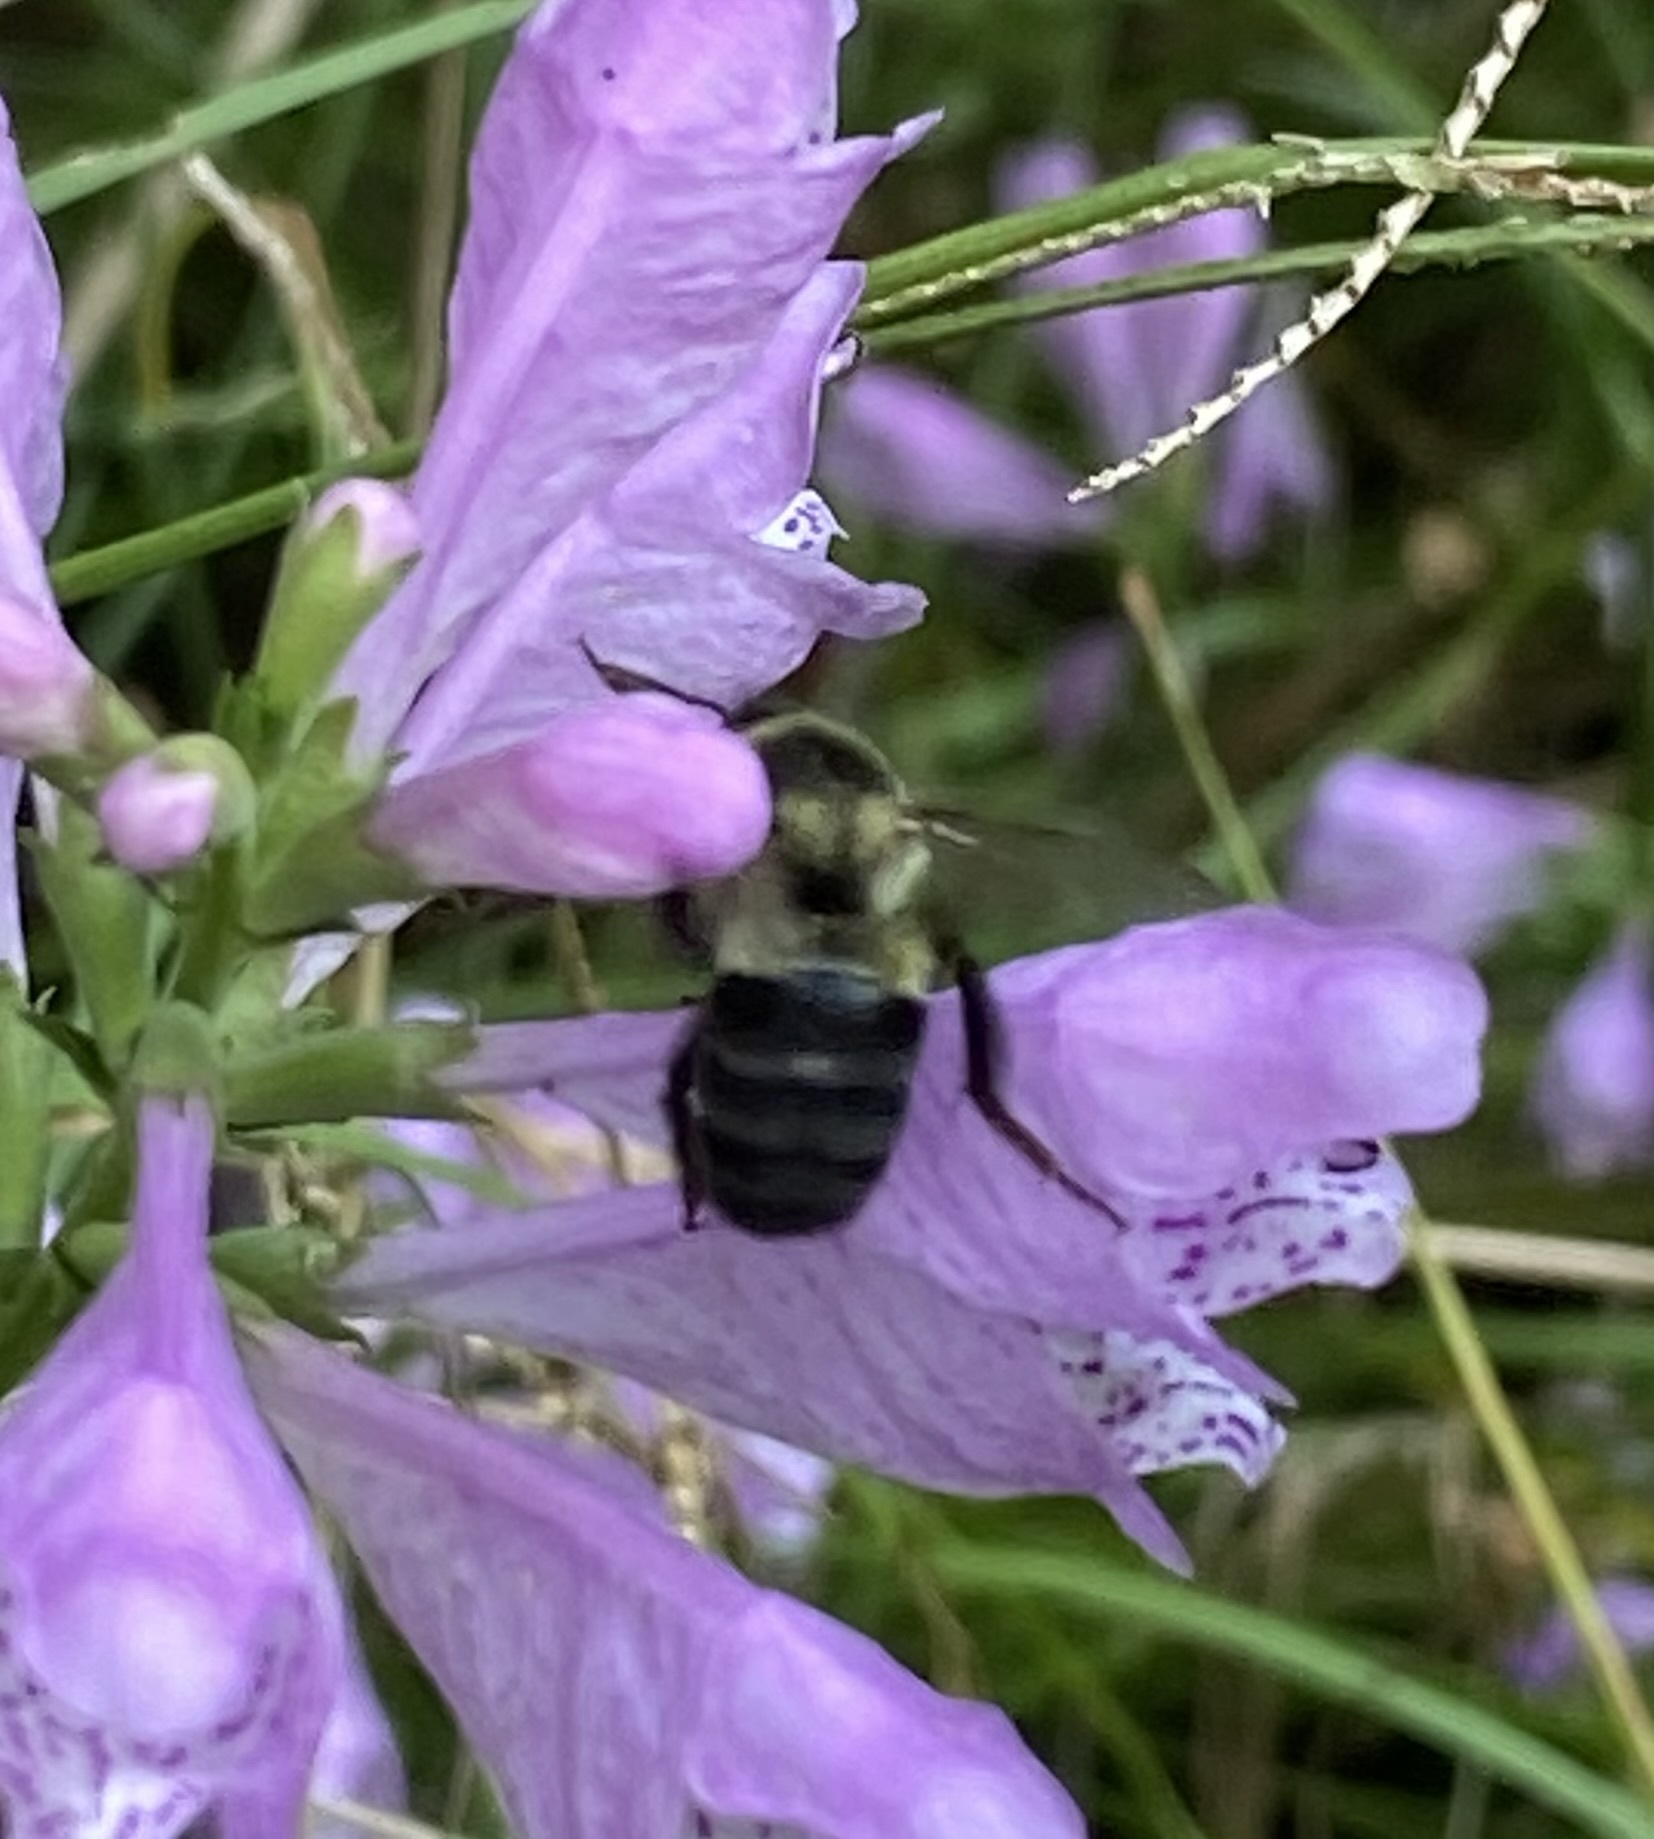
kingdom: Animalia
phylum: Arthropoda
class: Insecta
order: Hymenoptera
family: Apidae
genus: Bombus
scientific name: Bombus impatiens
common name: Common eastern bumble bee
